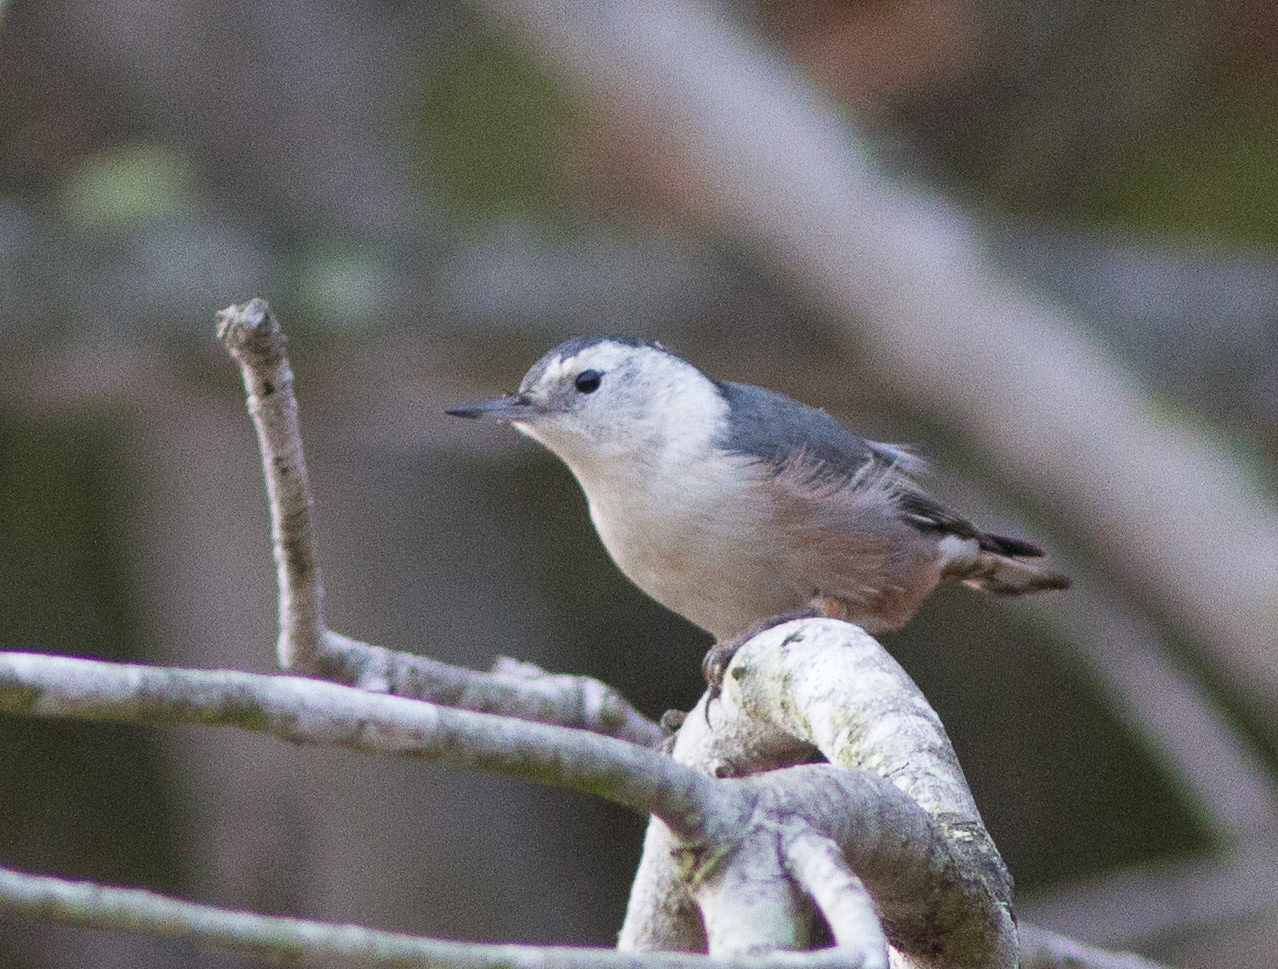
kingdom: Animalia
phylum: Chordata
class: Aves
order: Passeriformes
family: Sittidae
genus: Sitta
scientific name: Sitta carolinensis
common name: White-breasted nuthatch
